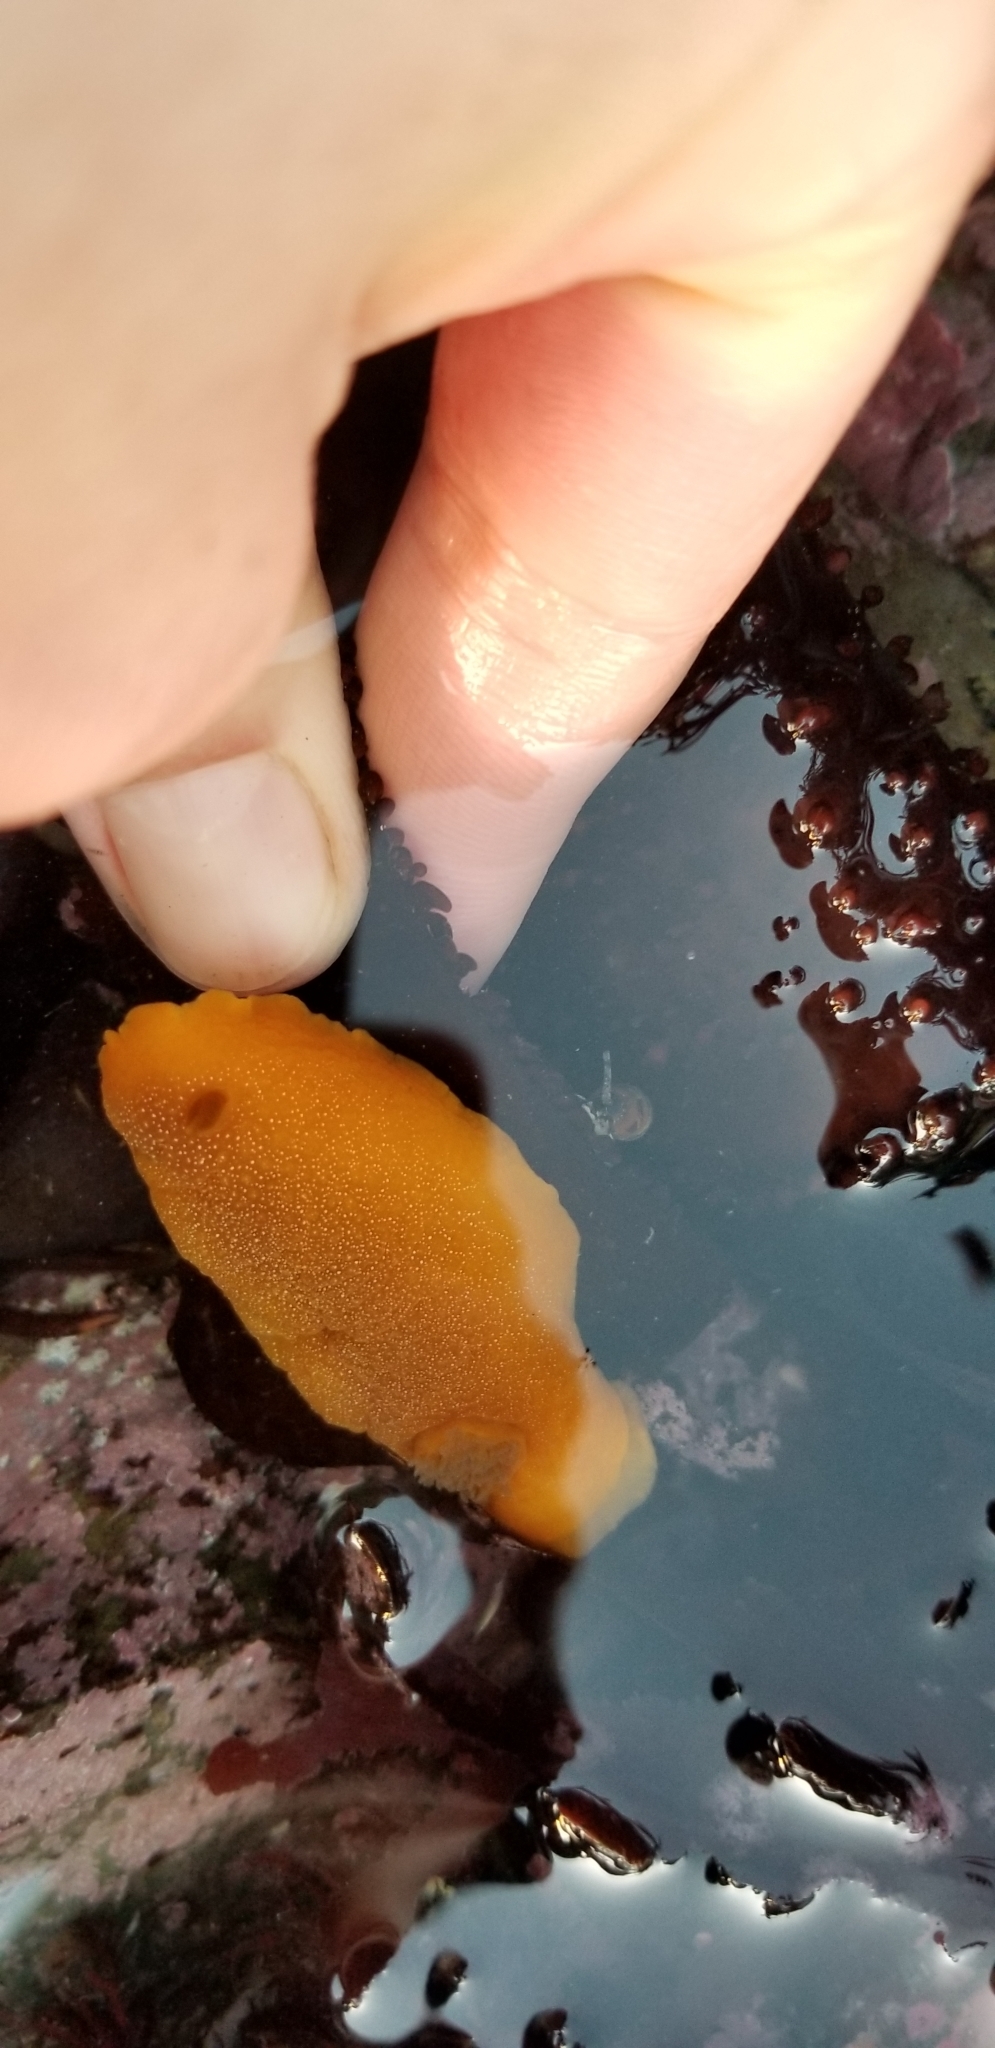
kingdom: Animalia
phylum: Mollusca
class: Gastropoda
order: Nudibranchia
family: Dendrodorididae
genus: Doriopsilla
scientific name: Doriopsilla albopunctata
